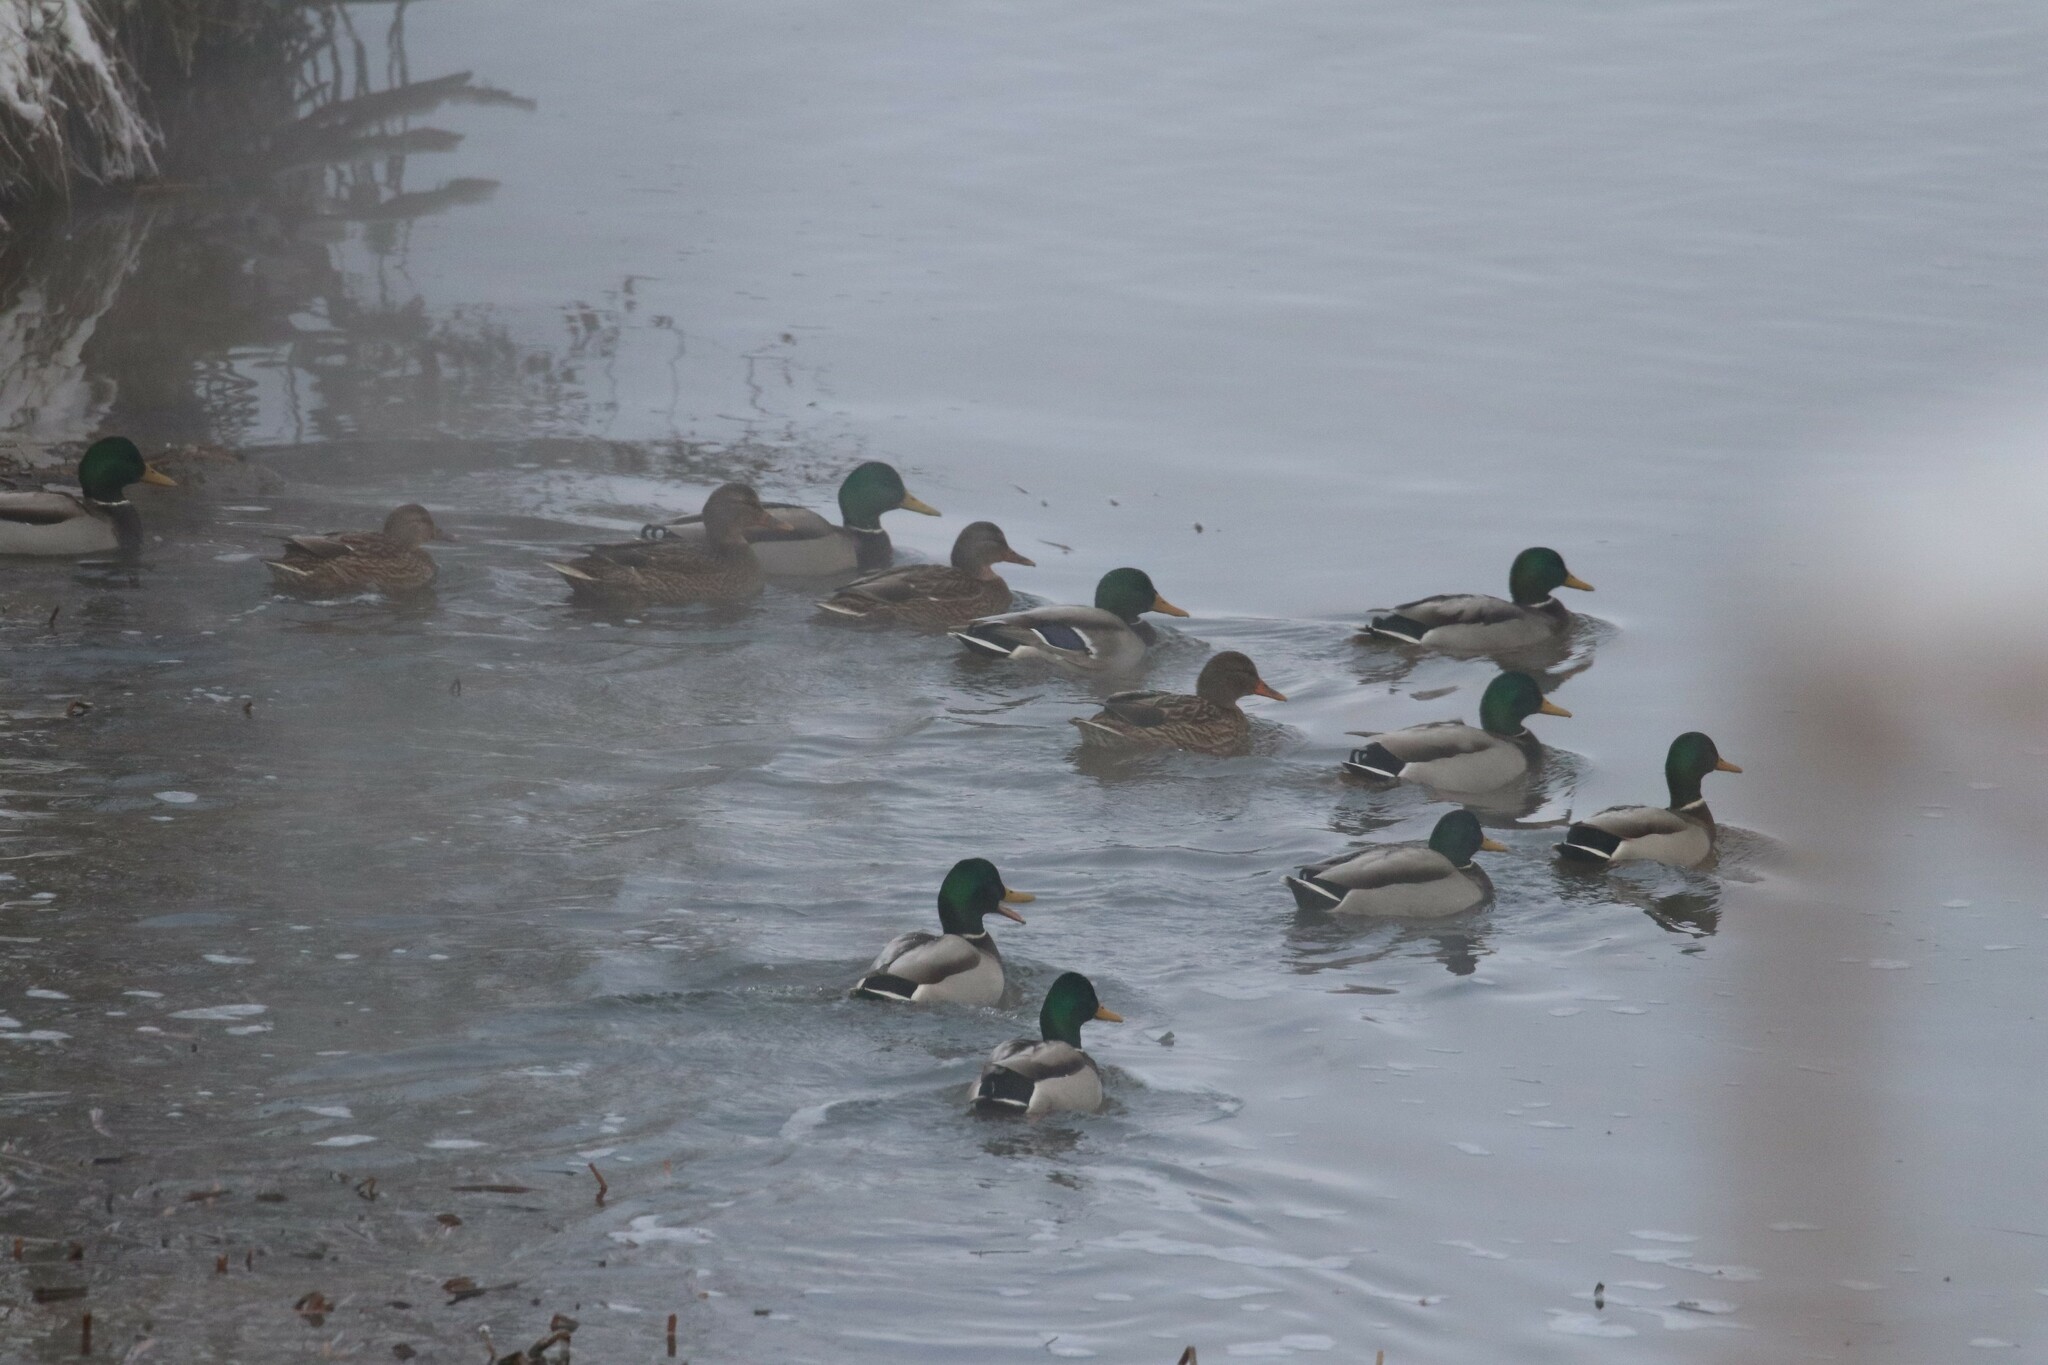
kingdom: Animalia
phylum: Chordata
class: Aves
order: Anseriformes
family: Anatidae
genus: Anas
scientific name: Anas platyrhynchos
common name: Mallard
